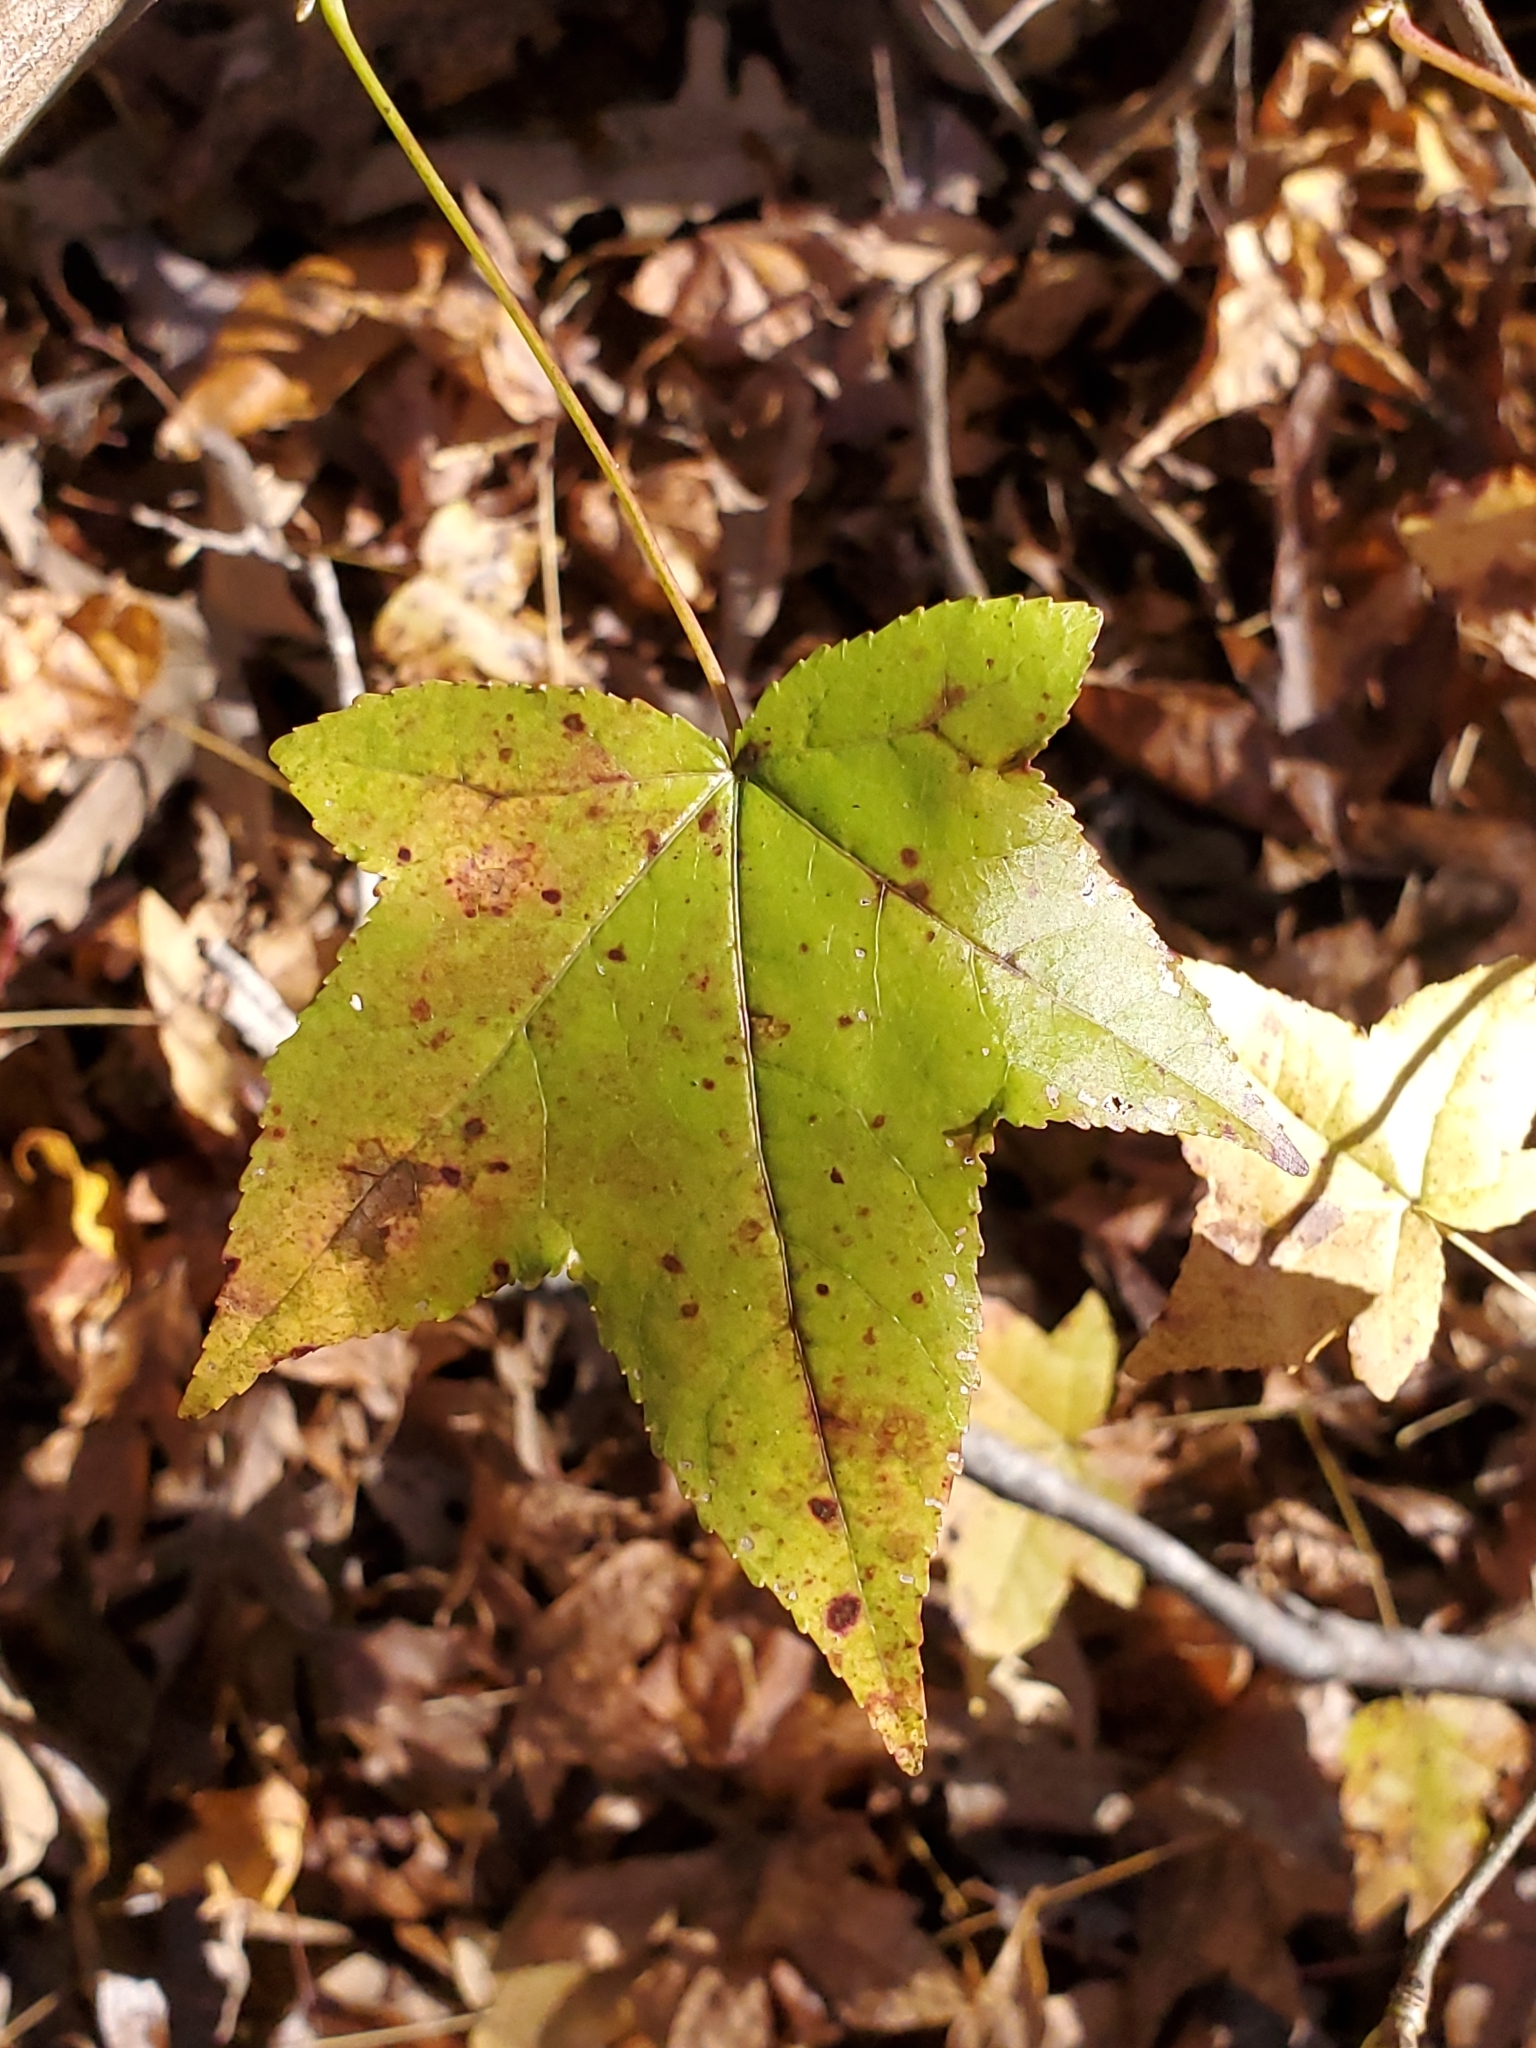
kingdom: Plantae
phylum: Tracheophyta
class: Magnoliopsida
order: Saxifragales
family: Altingiaceae
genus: Liquidambar
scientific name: Liquidambar styraciflua
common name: Sweet gum
